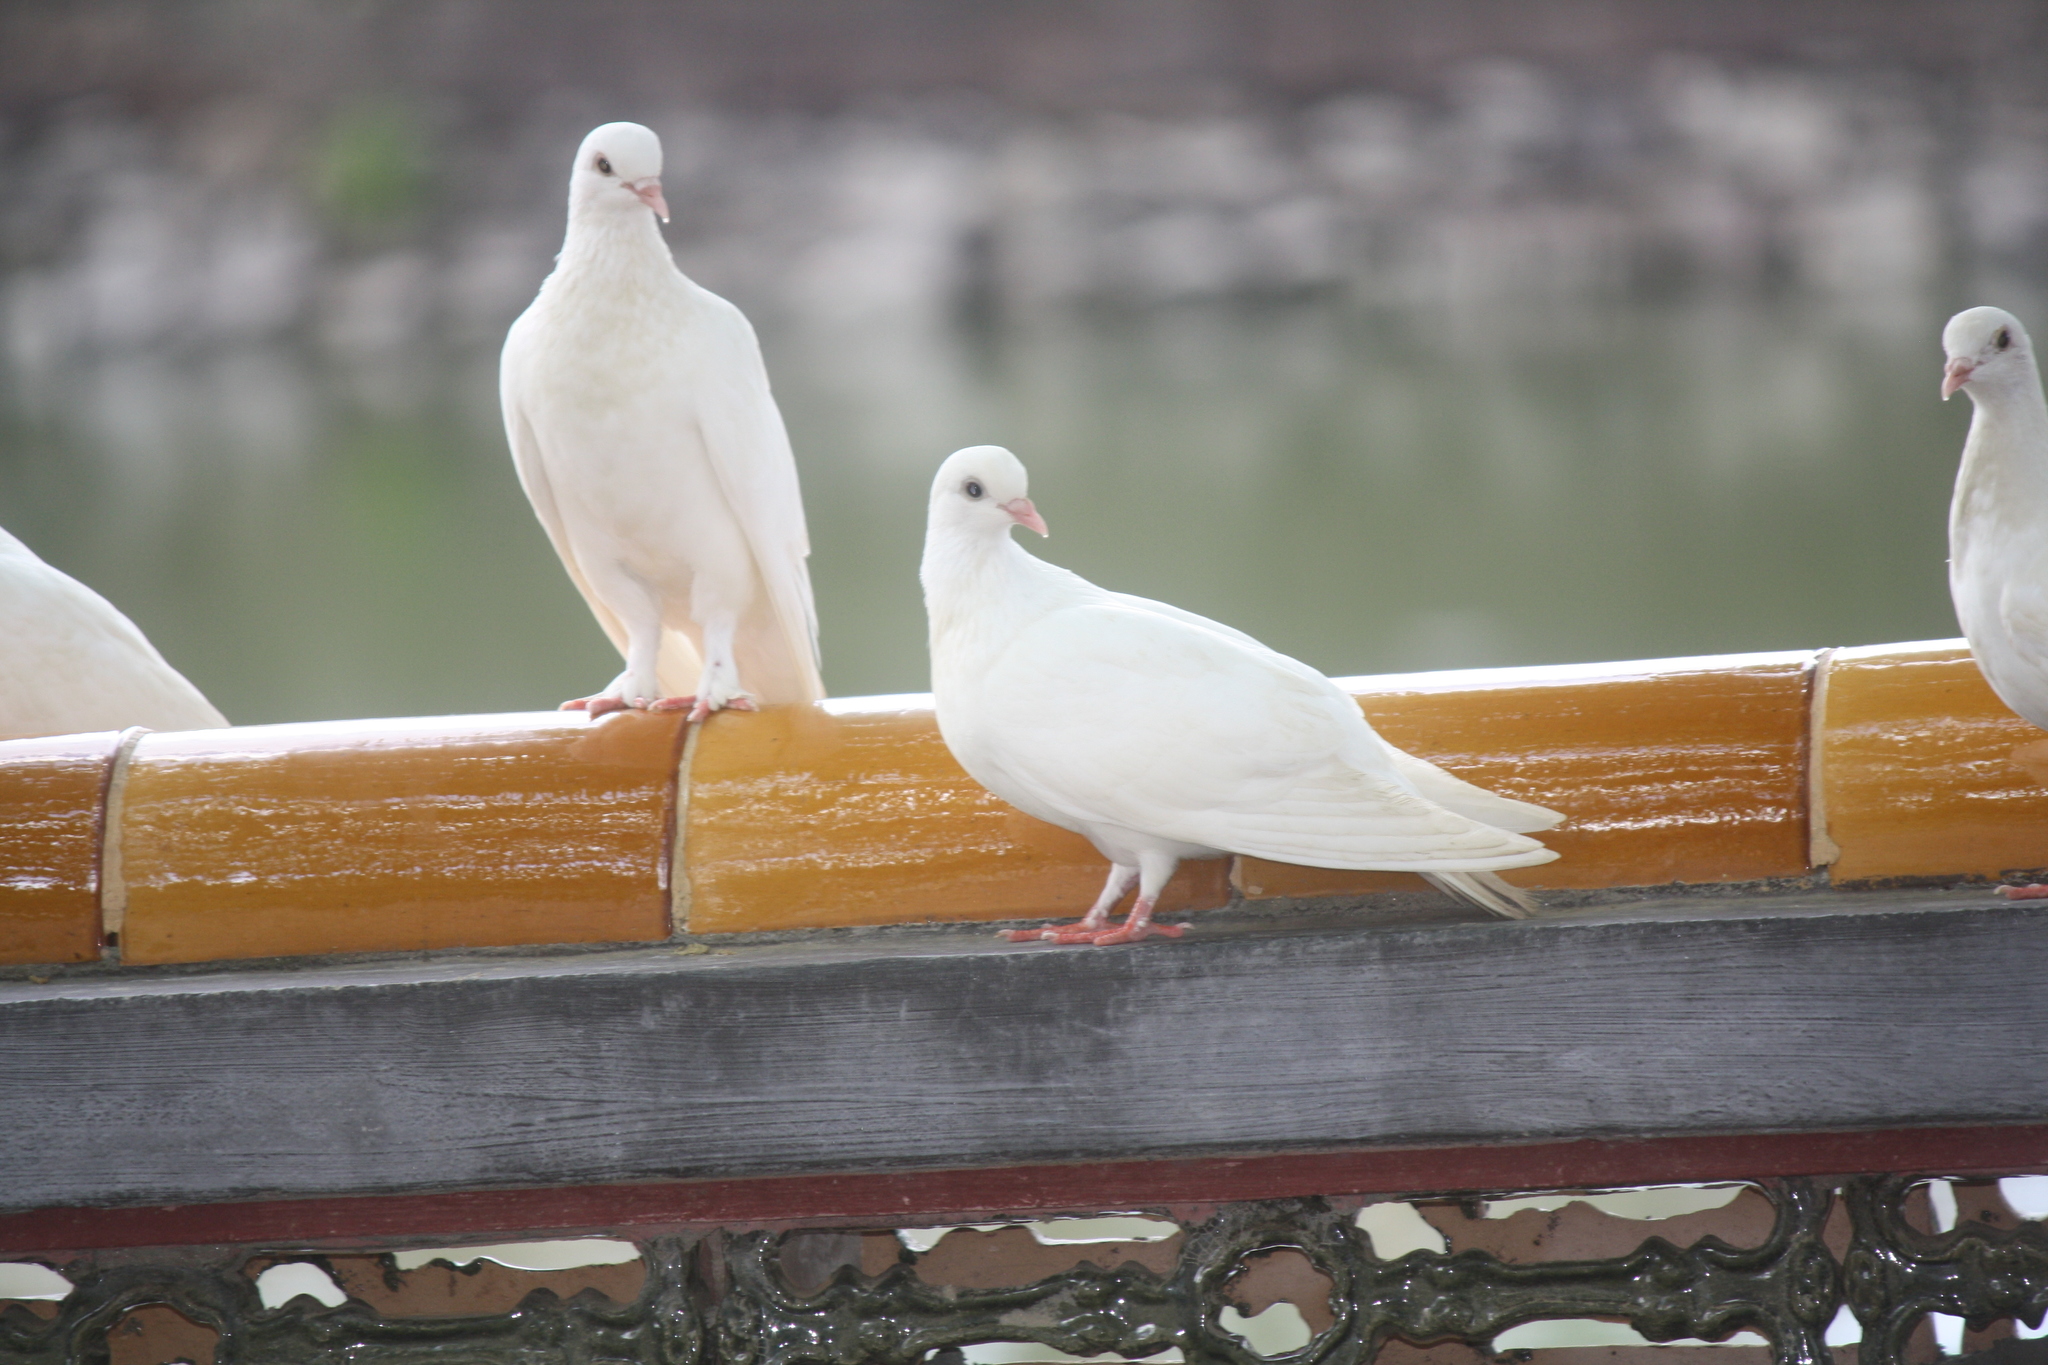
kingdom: Animalia
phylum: Chordata
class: Aves
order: Columbiformes
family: Columbidae
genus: Columba
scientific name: Columba livia
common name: Rock pigeon
